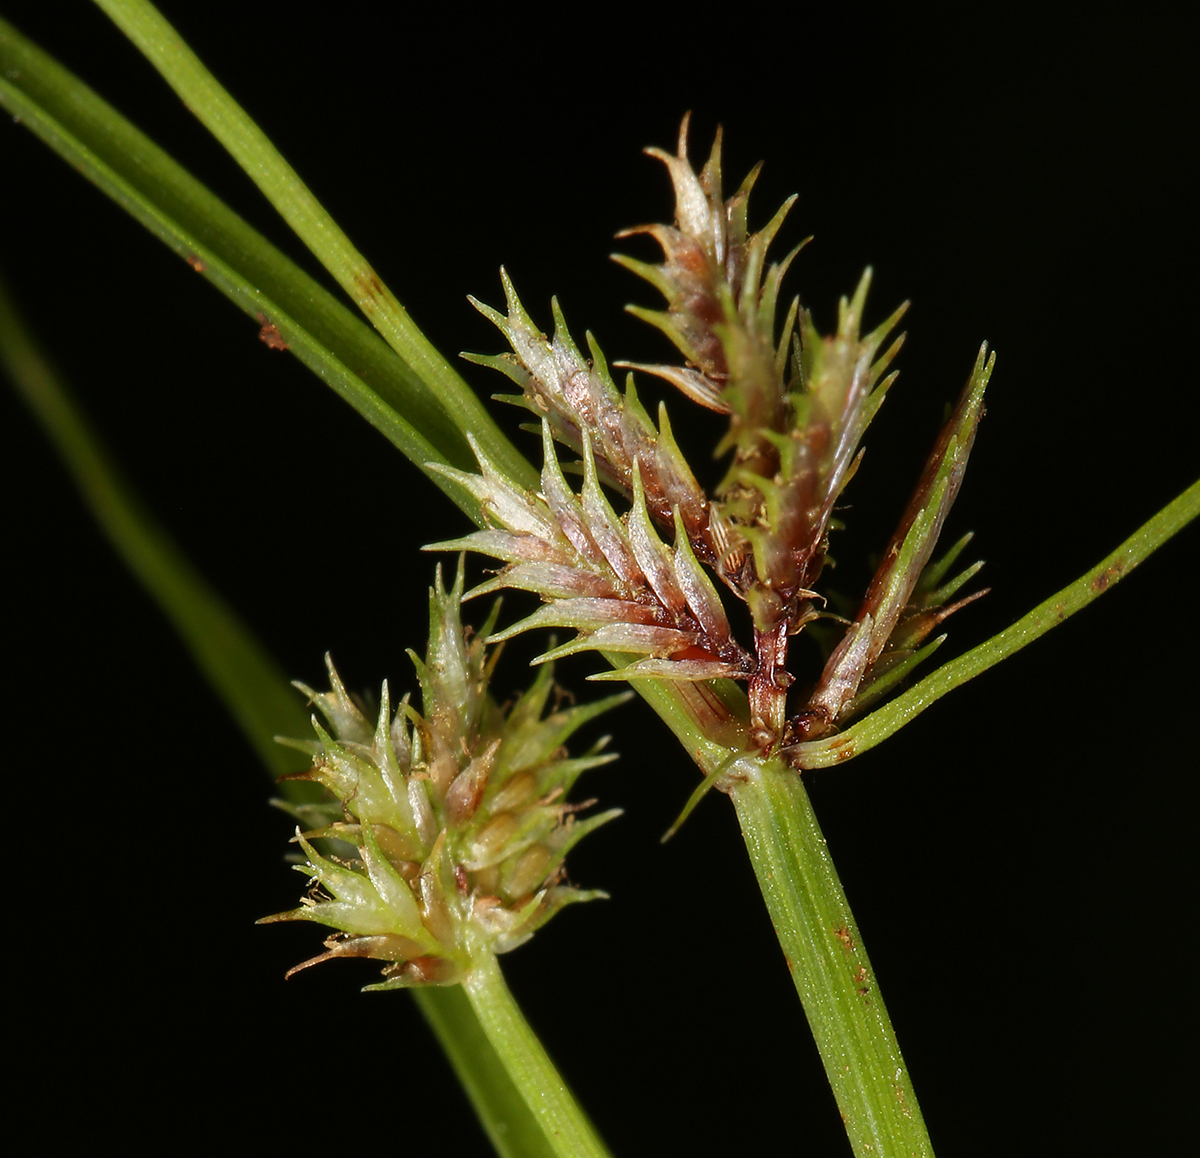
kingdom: Plantae
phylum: Tracheophyta
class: Liliopsida
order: Poales
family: Cyperaceae
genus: Cyperus
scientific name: Cyperus squarrosus
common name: Awned cyperus
